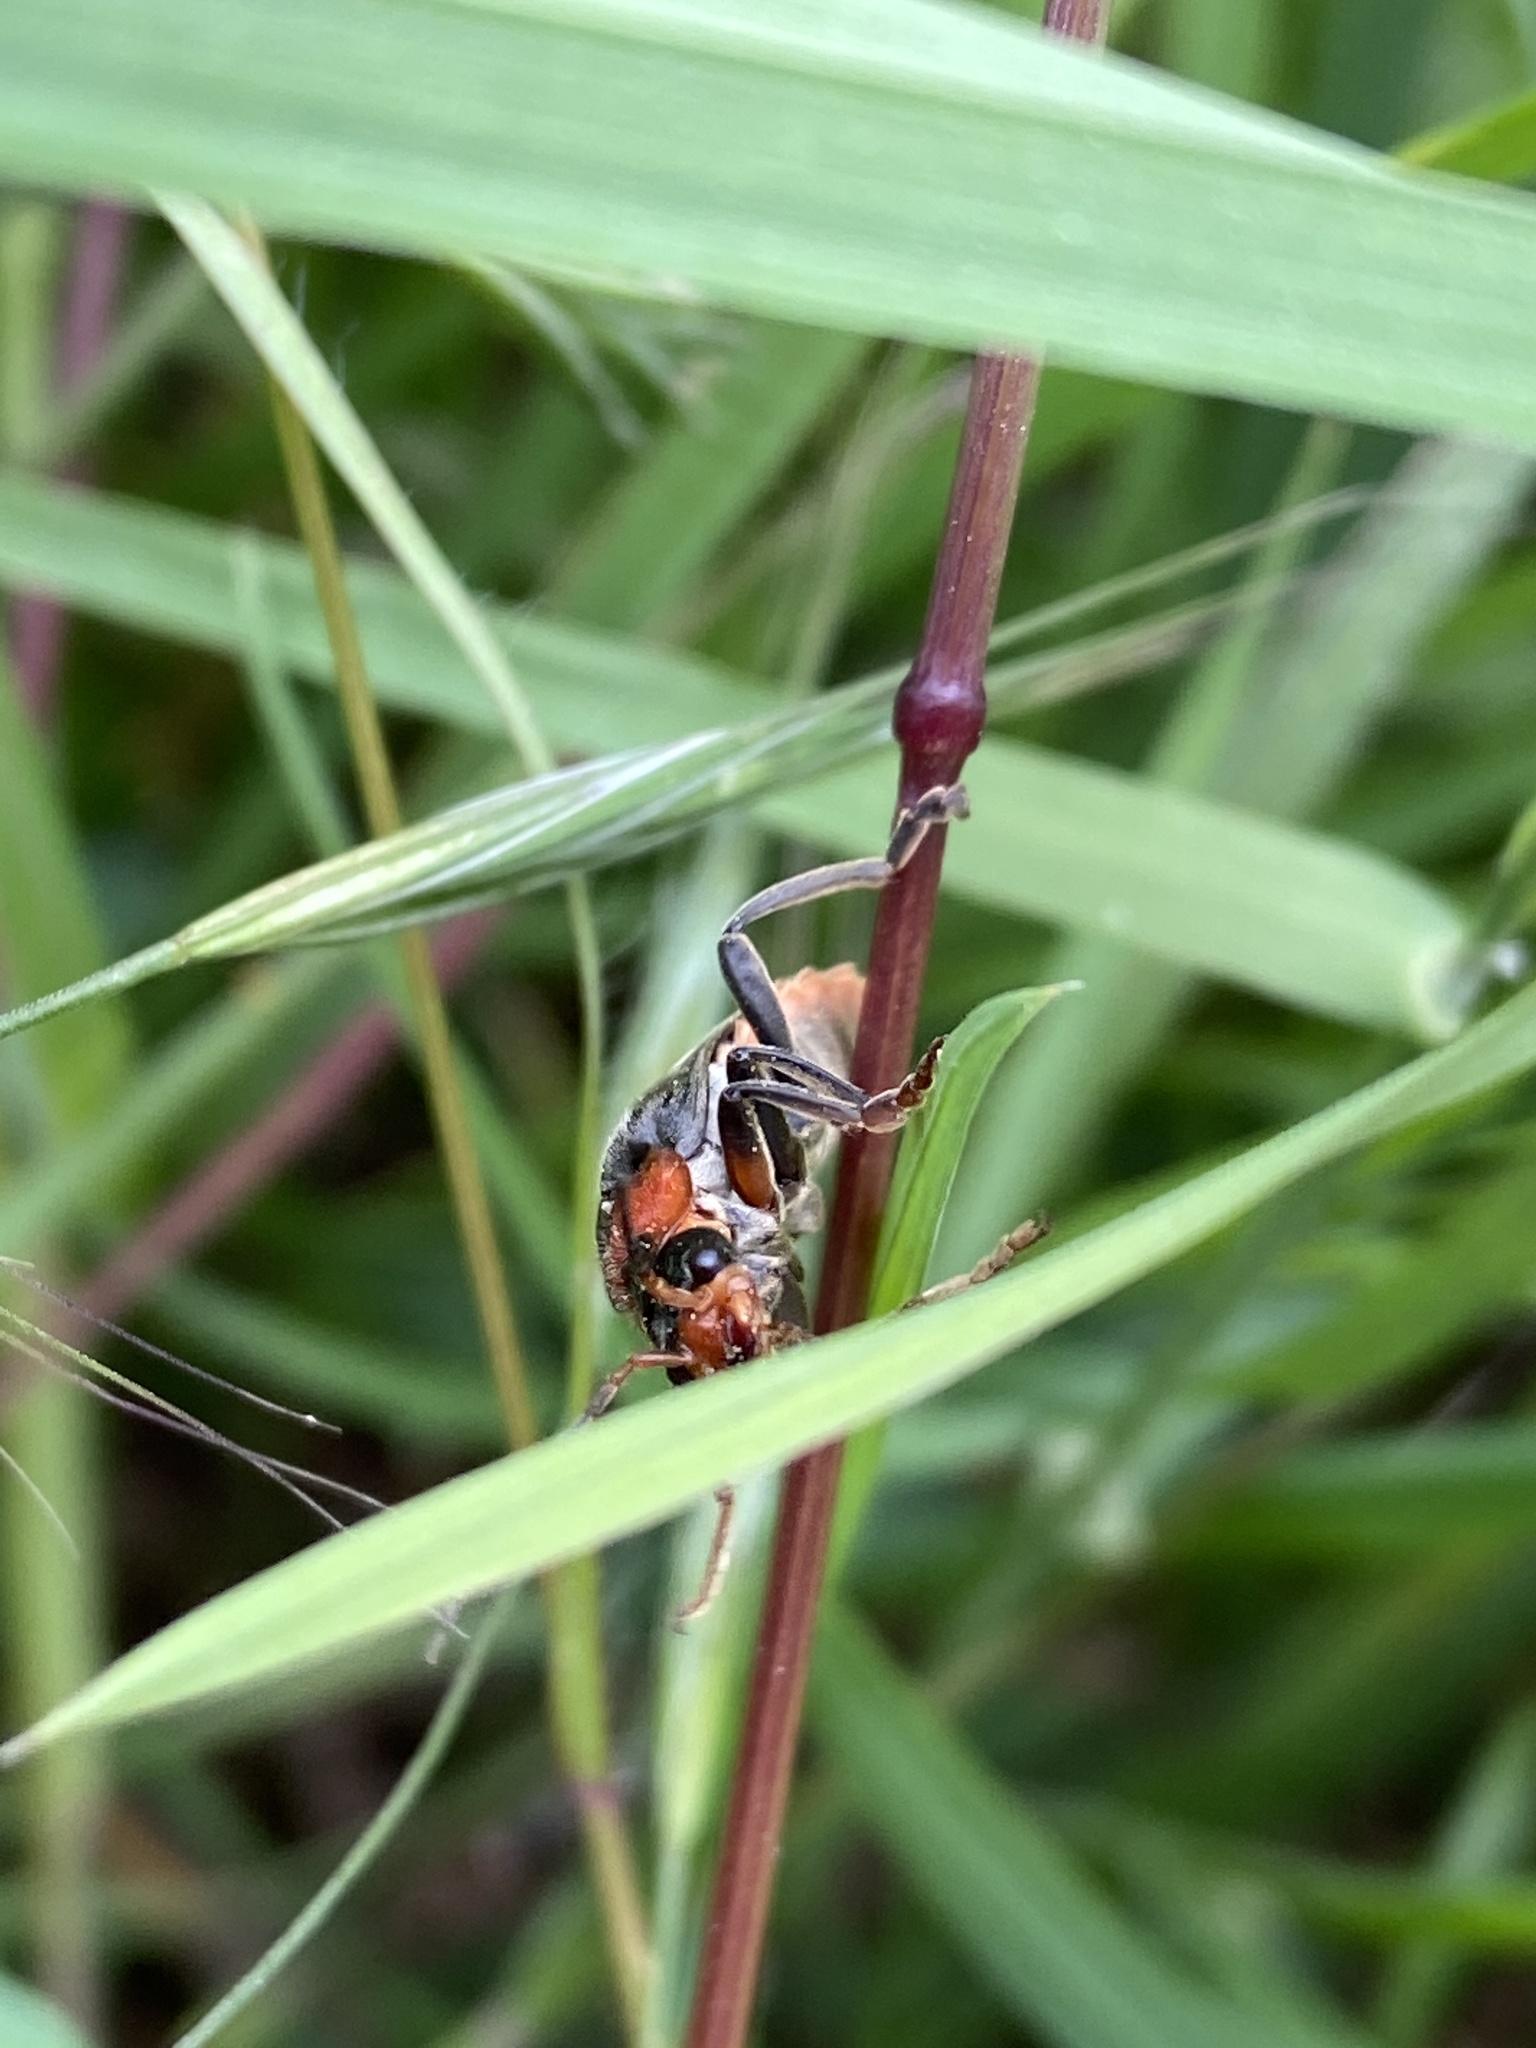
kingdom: Animalia
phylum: Arthropoda
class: Insecta
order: Coleoptera
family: Cantharidae
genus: Cantharis
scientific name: Cantharis fusca
